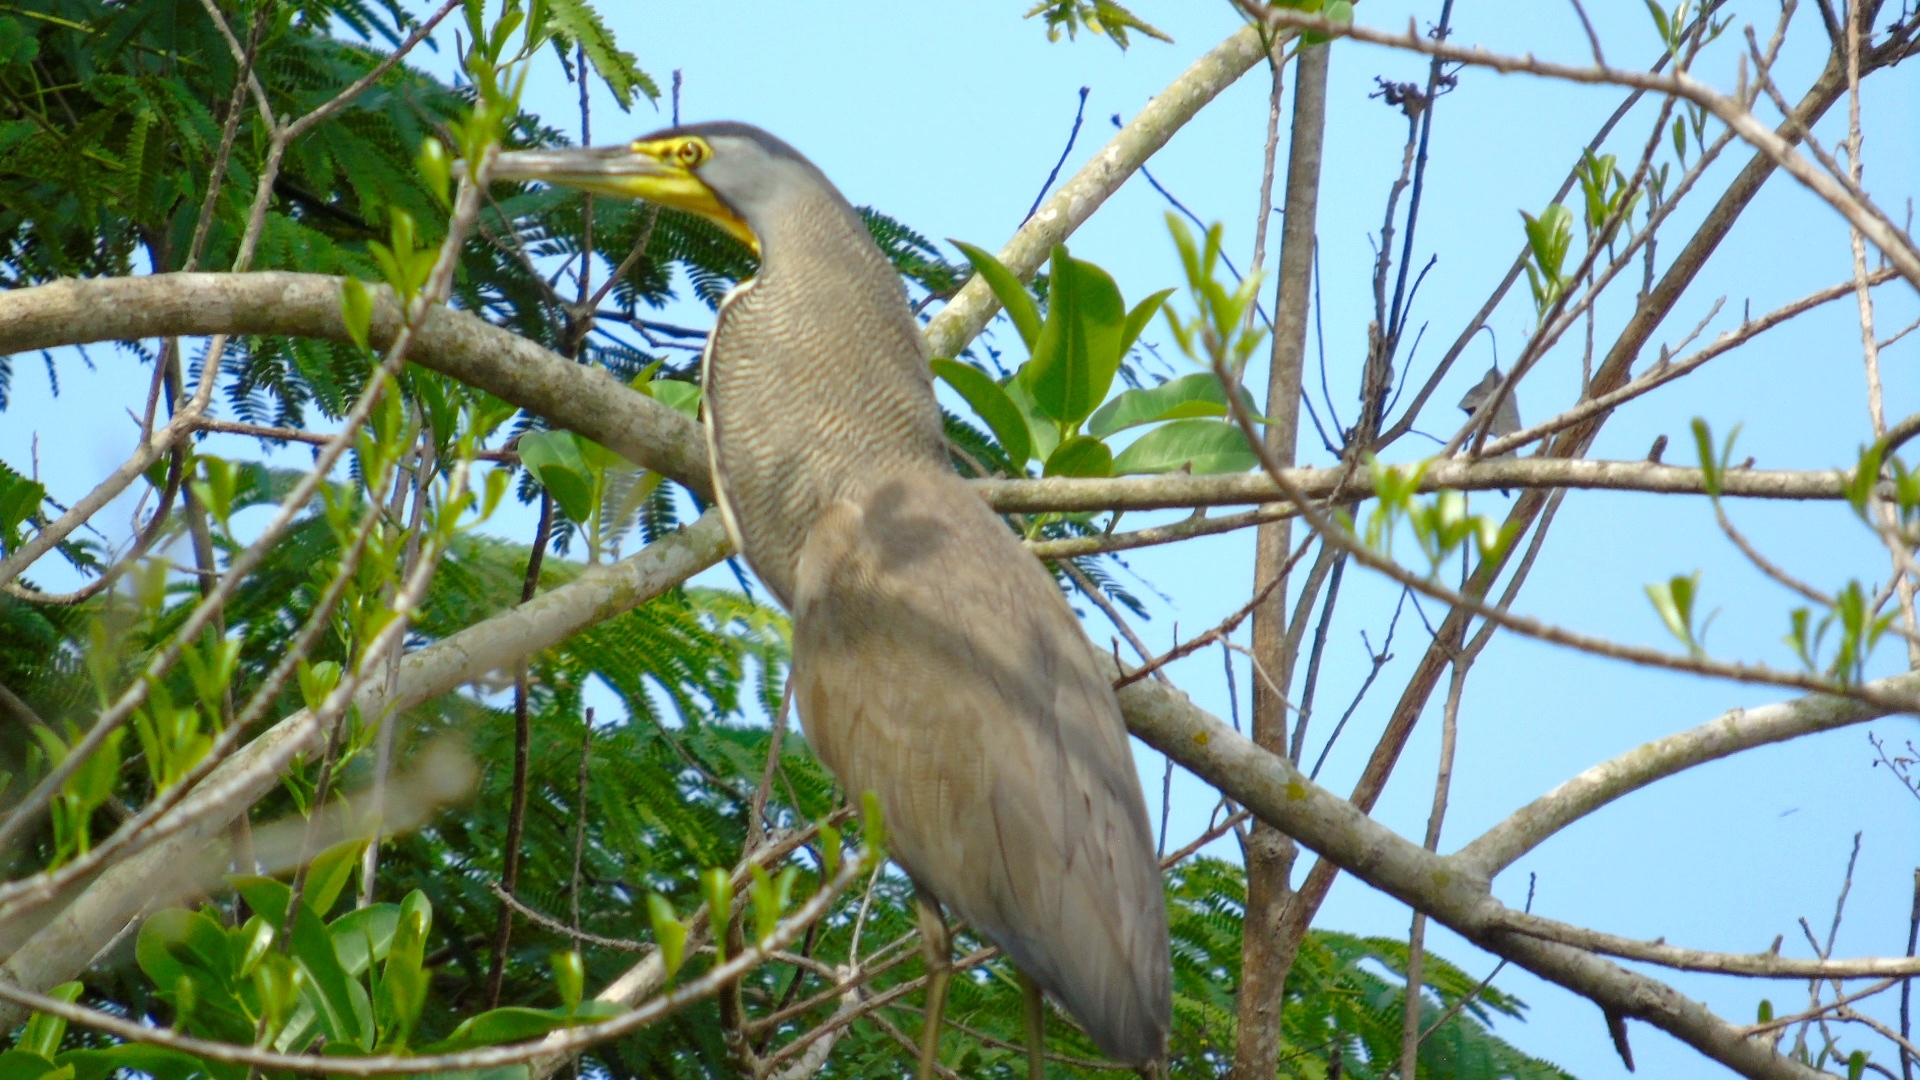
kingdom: Animalia
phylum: Chordata
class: Aves
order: Pelecaniformes
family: Ardeidae
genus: Tigrisoma
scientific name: Tigrisoma mexicanum
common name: Bare-throated tiger-heron
